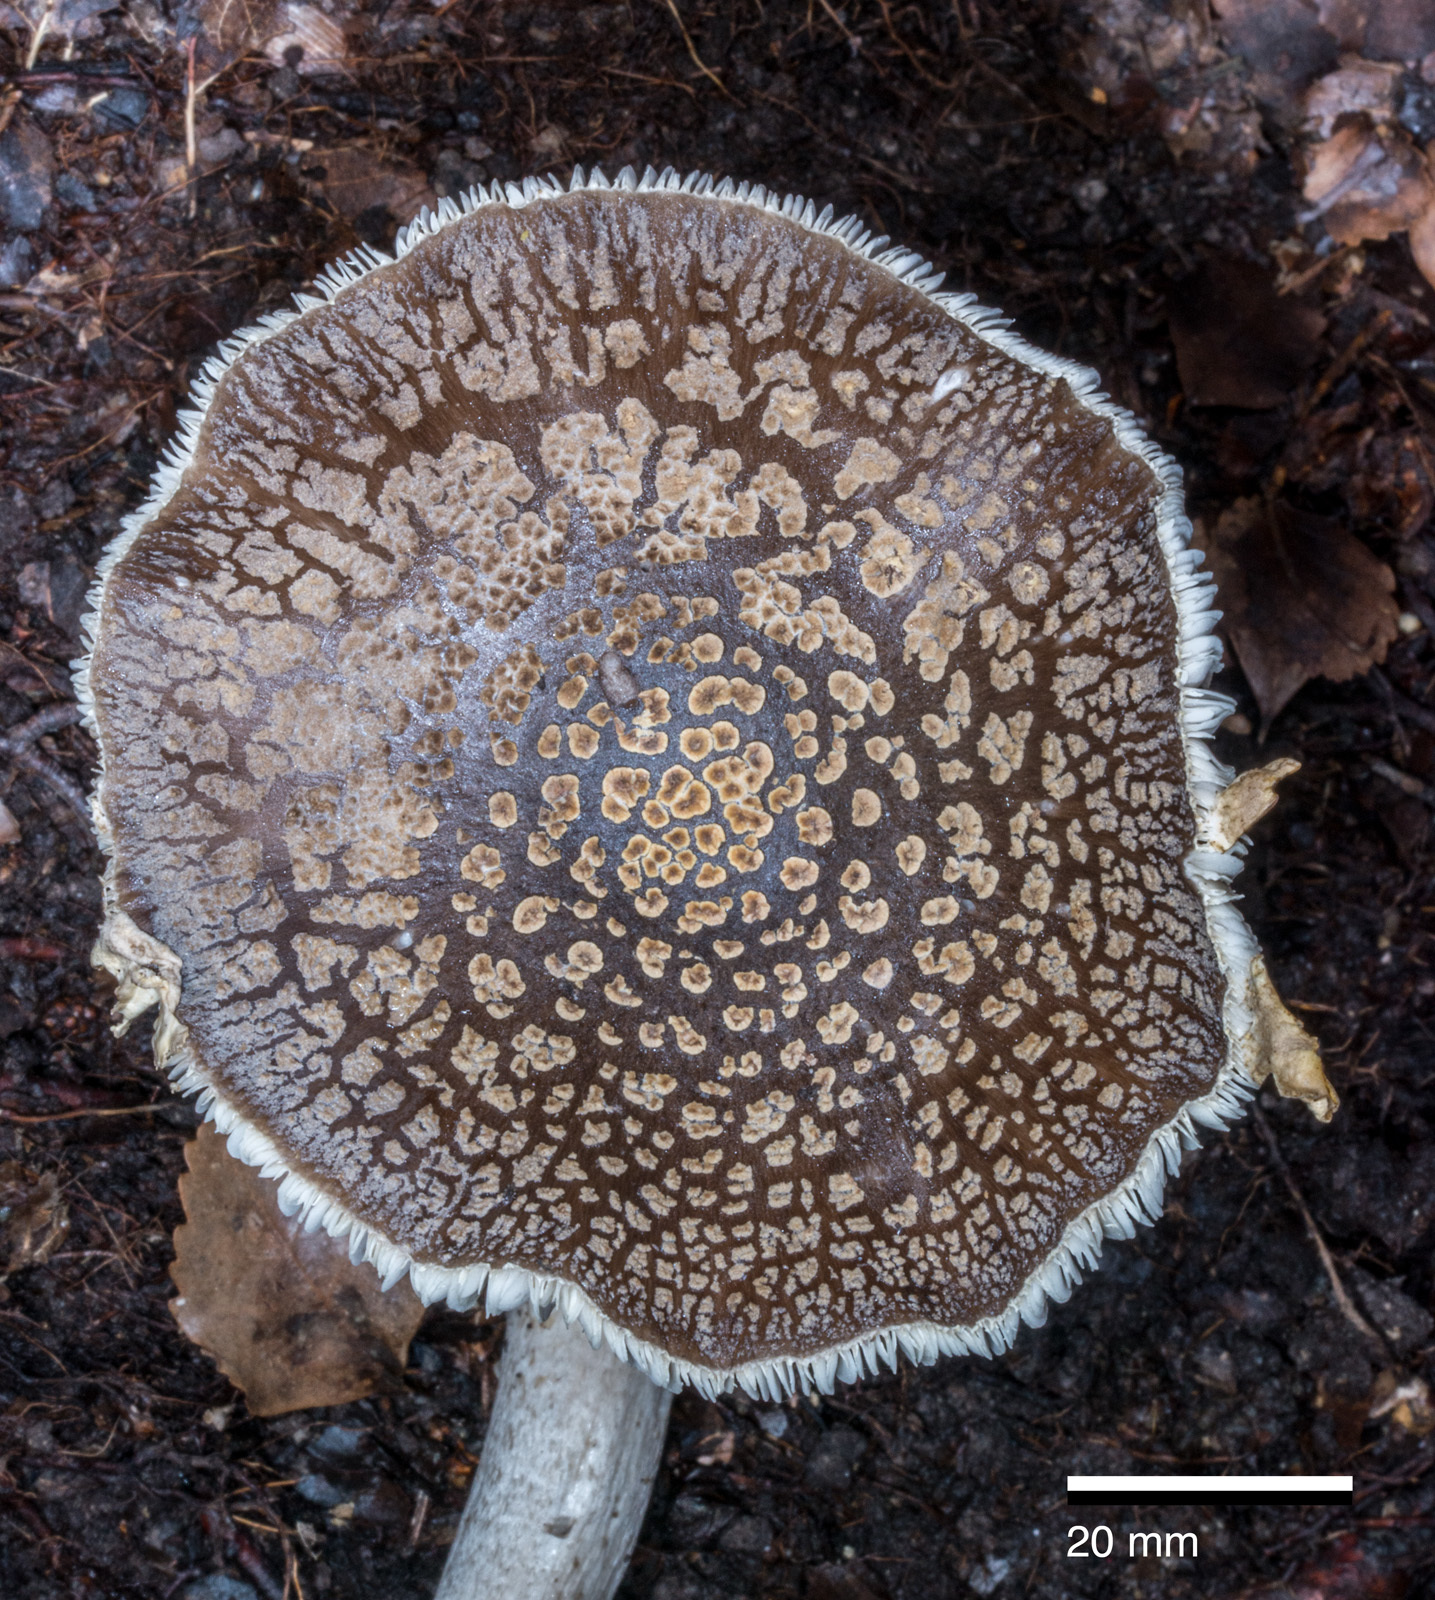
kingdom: Fungi
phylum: Basidiomycota
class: Agaricomycetes
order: Agaricales
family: Amanitaceae
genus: Amanita
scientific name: Amanita karea
